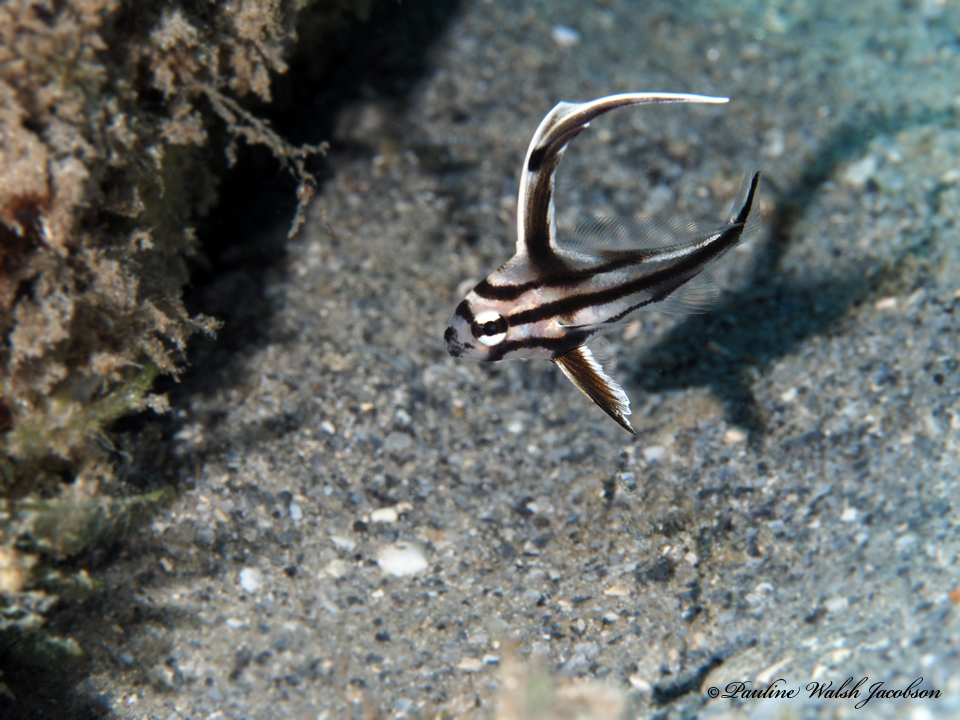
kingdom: Animalia
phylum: Chordata
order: Perciformes
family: Sciaenidae
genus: Pareques
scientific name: Pareques acuminatus
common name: High-hat
